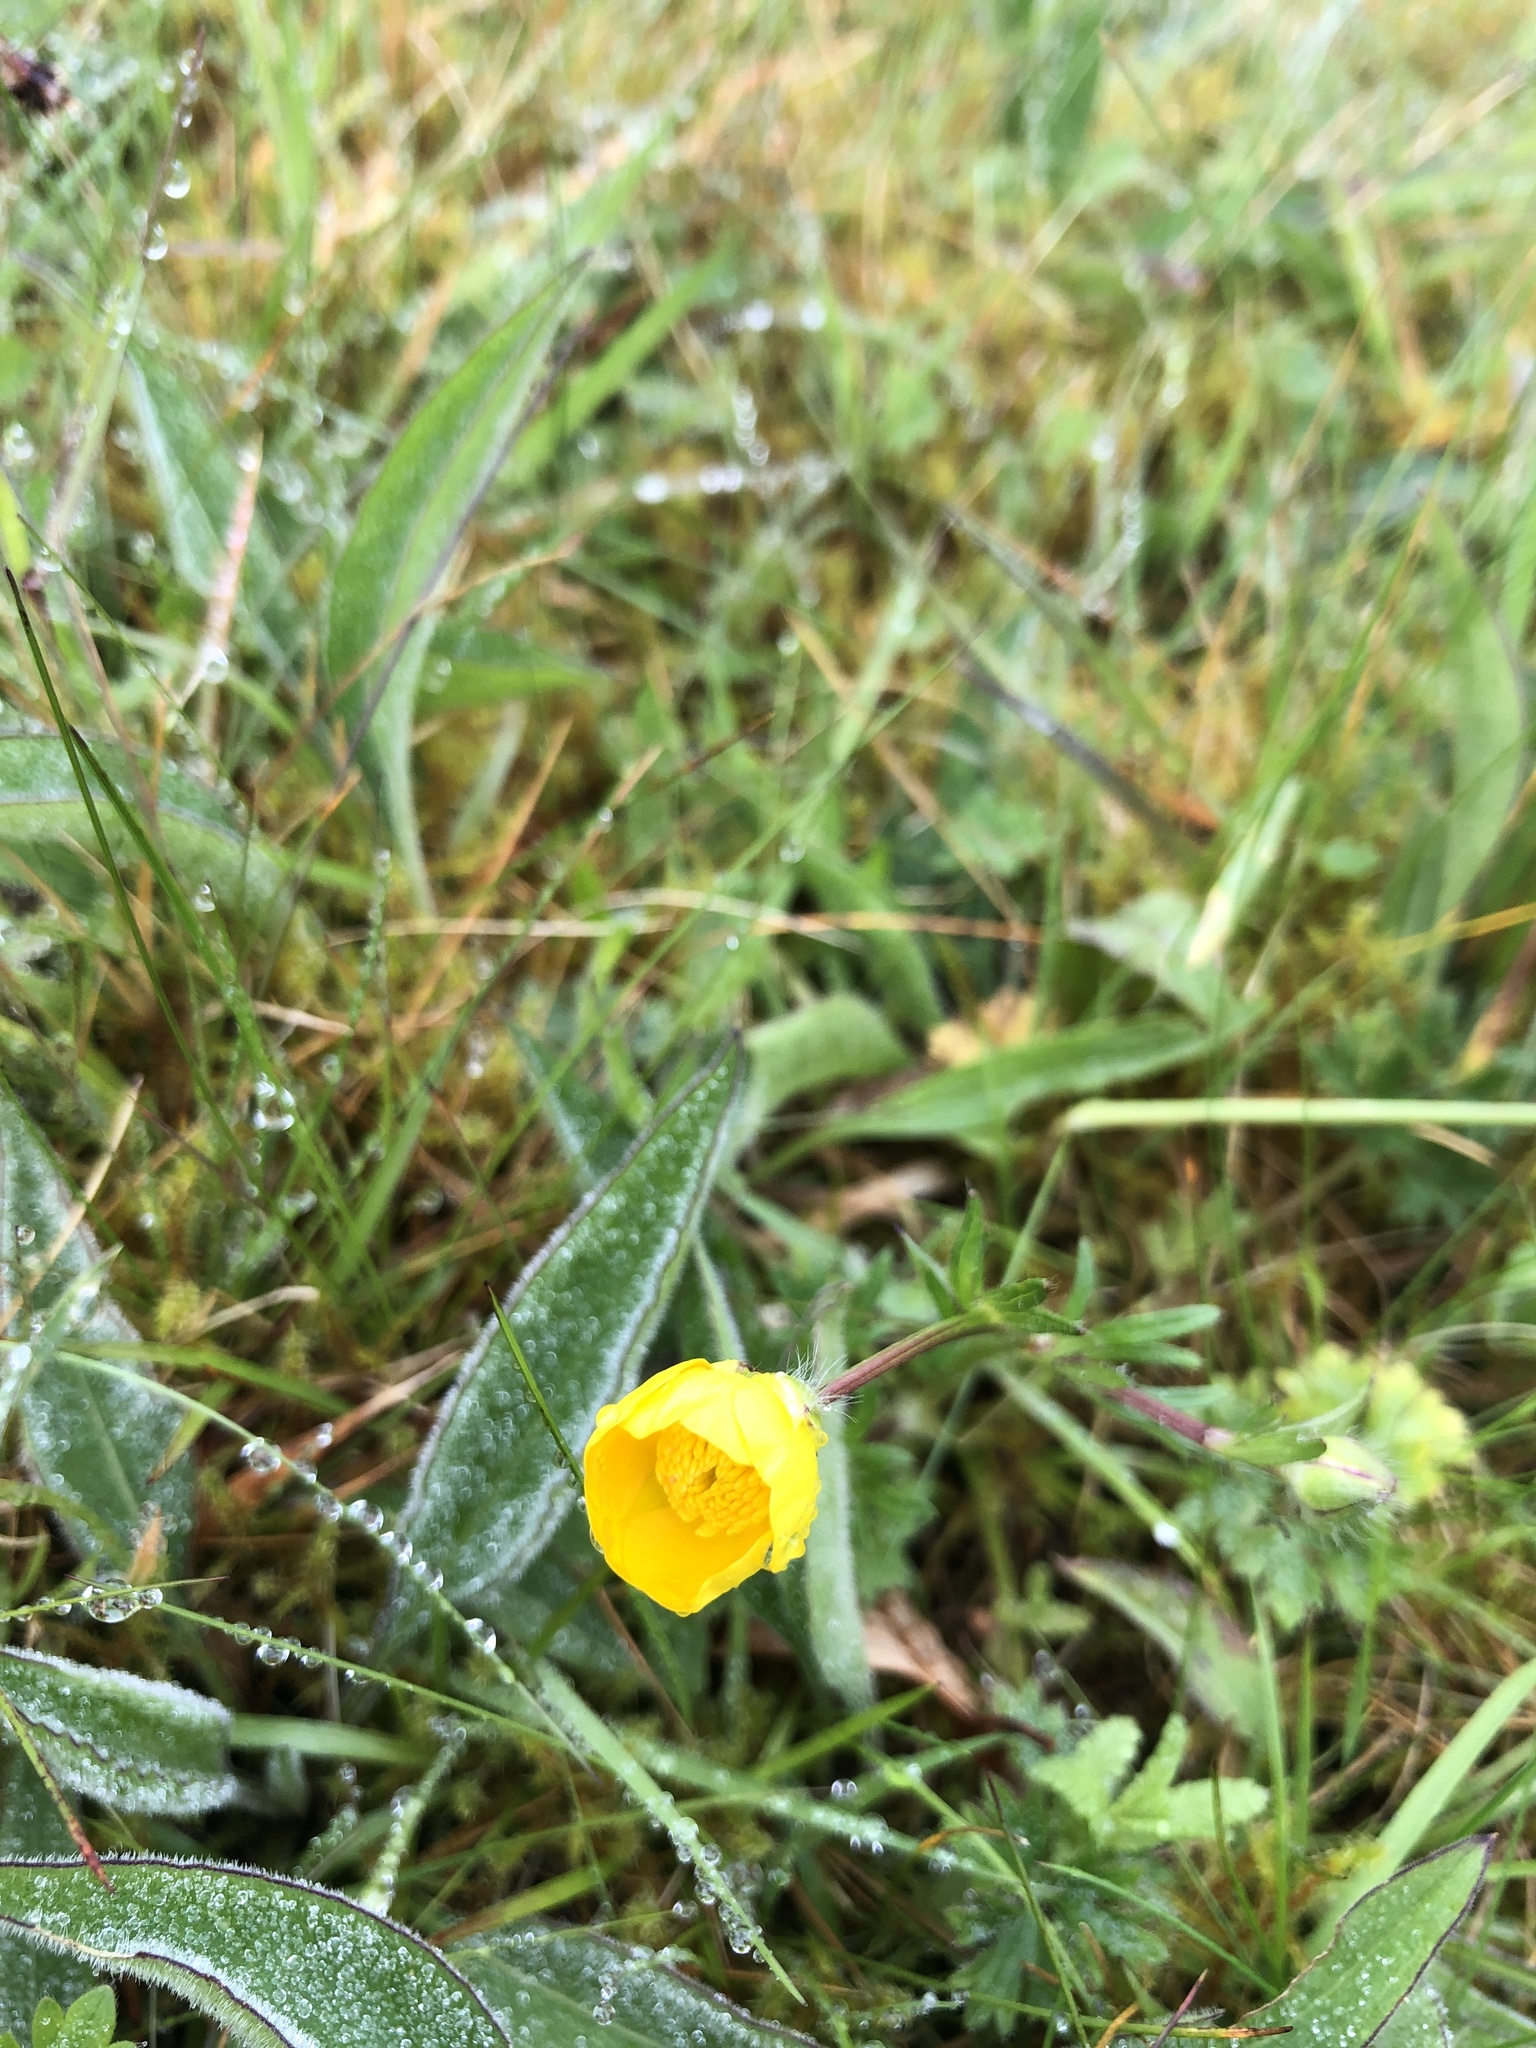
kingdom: Plantae
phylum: Tracheophyta
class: Magnoliopsida
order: Ranunculales
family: Ranunculaceae
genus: Ranunculus
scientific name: Ranunculus bulbosus
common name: Bulbous buttercup
